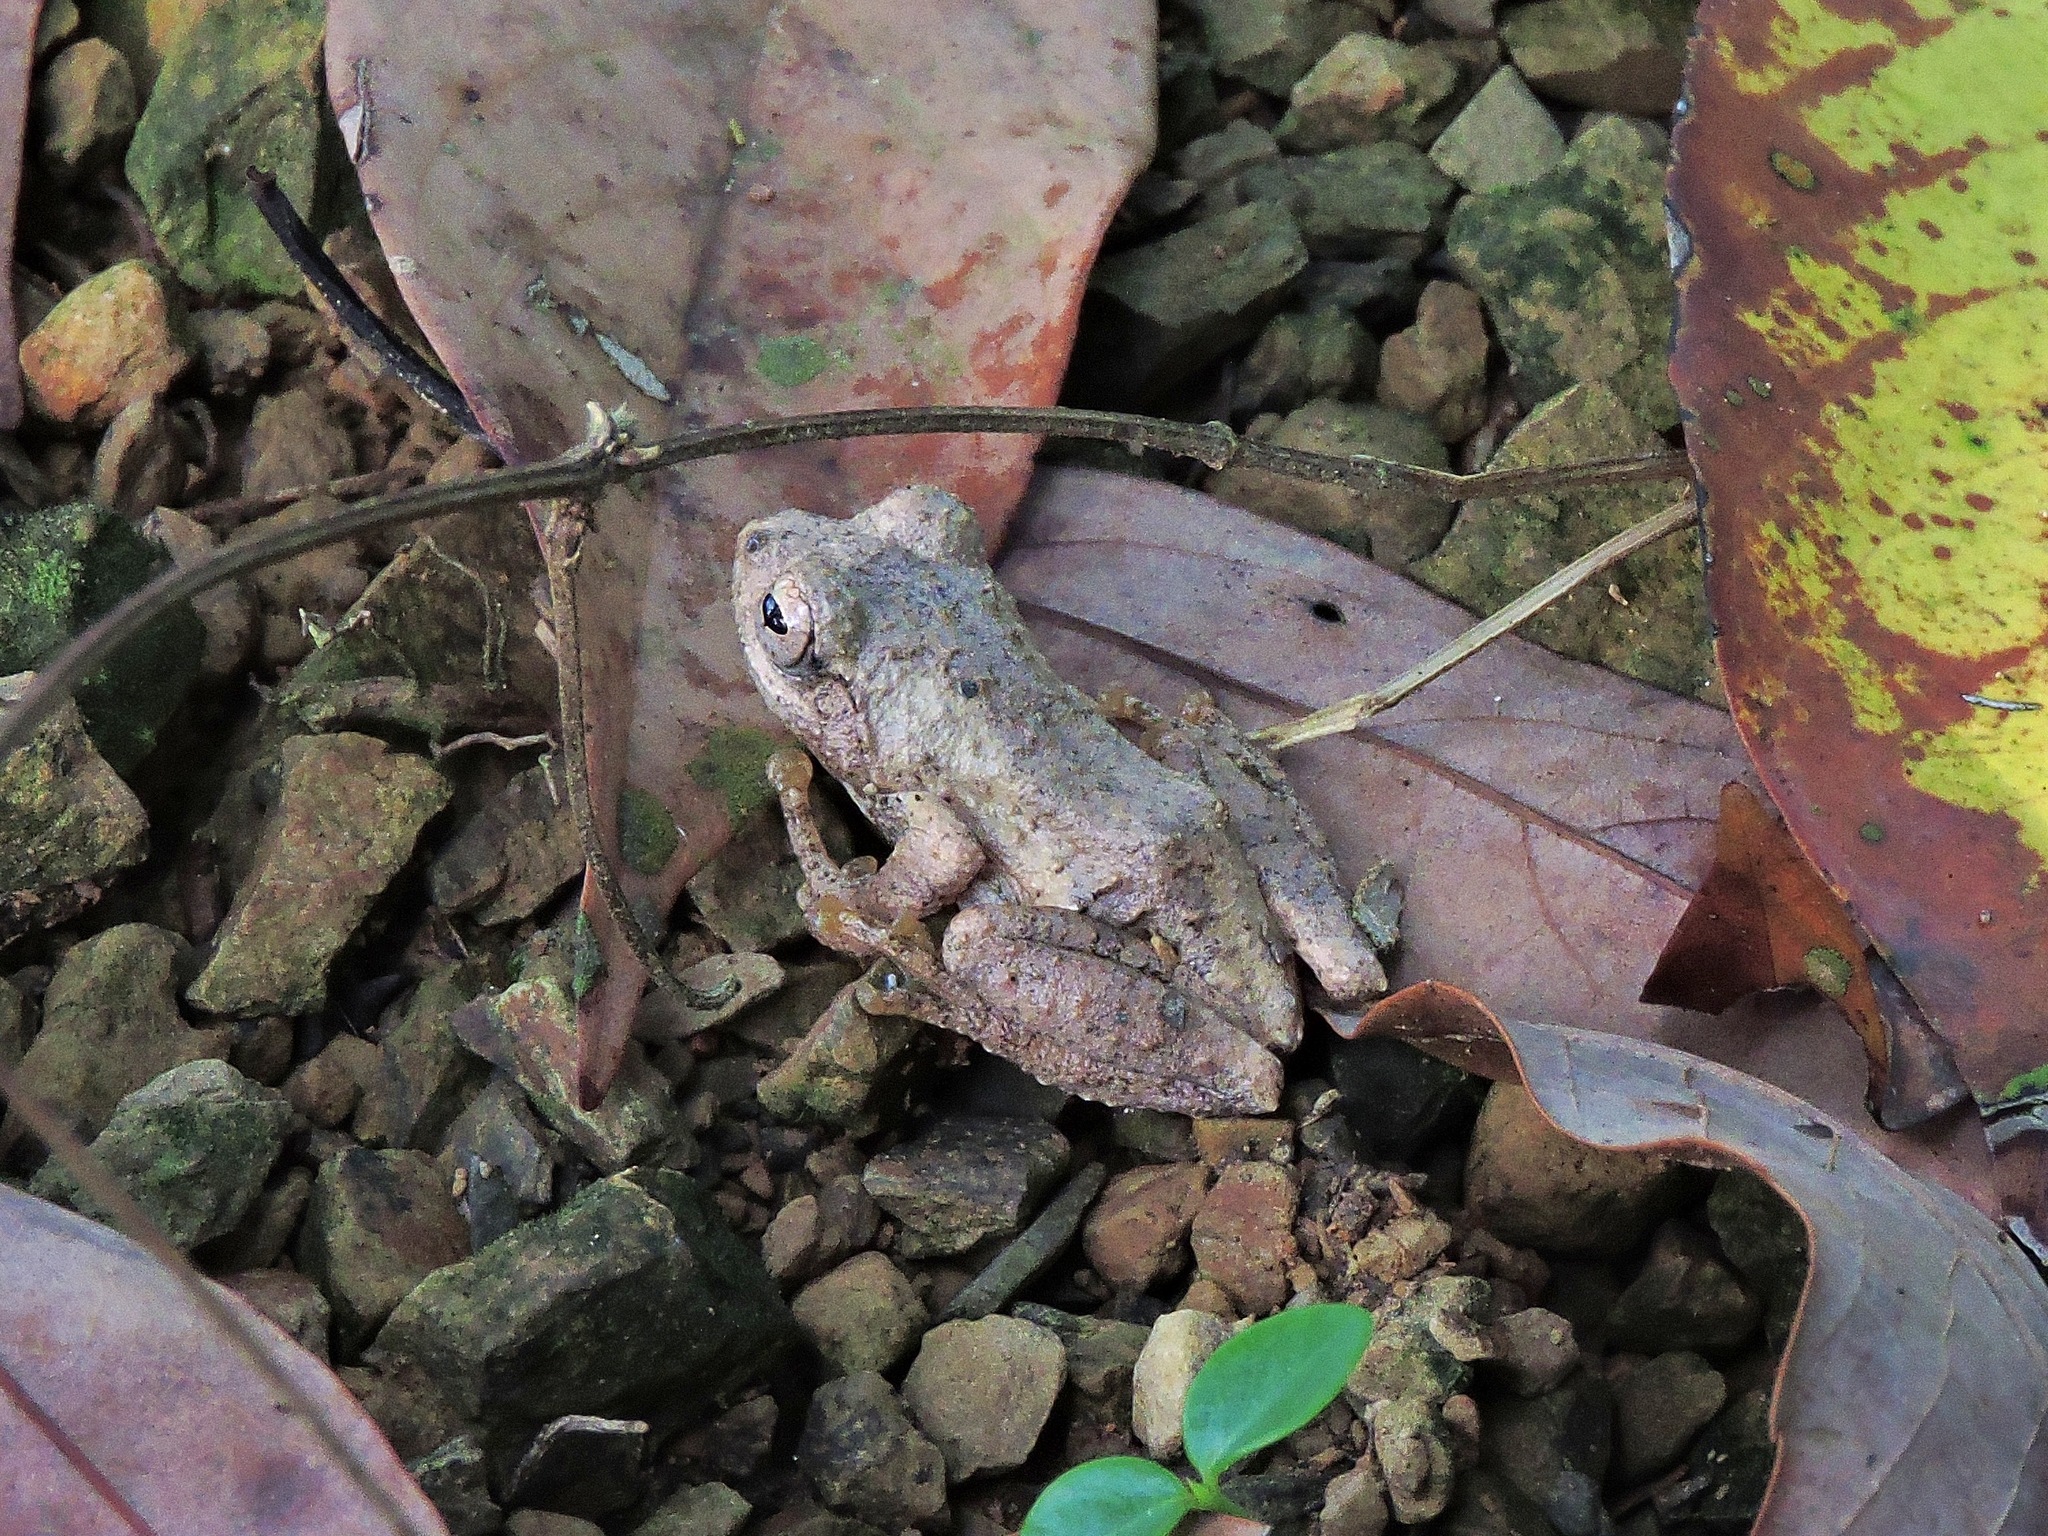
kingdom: Animalia
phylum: Chordata
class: Amphibia
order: Anura
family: Rhacophoridae
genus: Kurixalus
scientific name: Kurixalus eiffingeri
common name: Eiffinger’s treefrog
